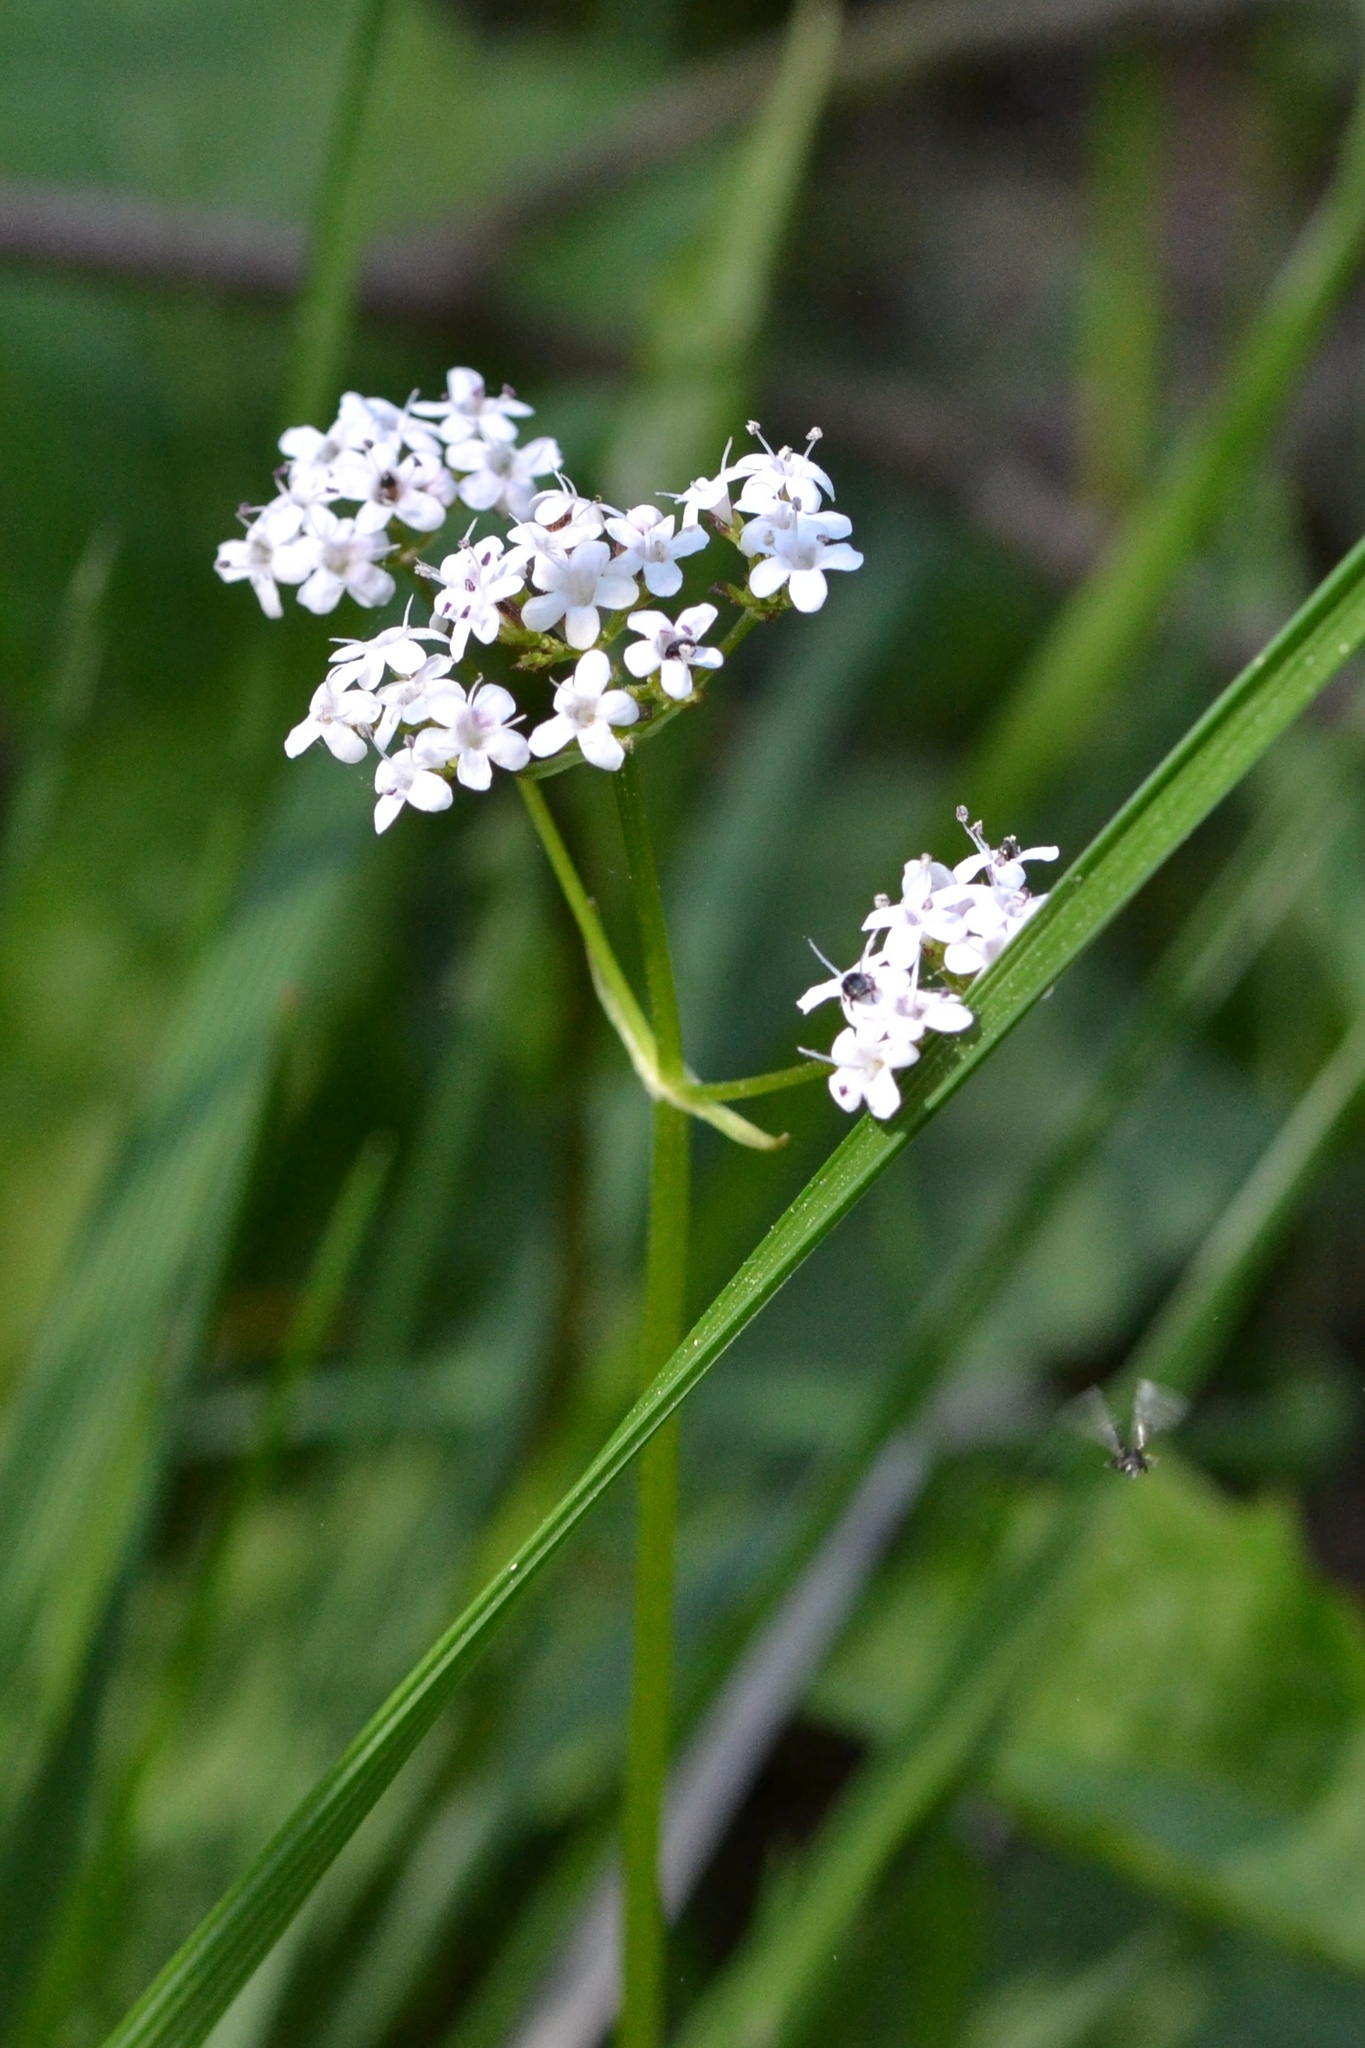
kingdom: Plantae
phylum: Tracheophyta
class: Magnoliopsida
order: Dipsacales
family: Caprifoliaceae
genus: Valeriana
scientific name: Valeriana dioica
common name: Marsh valerian
